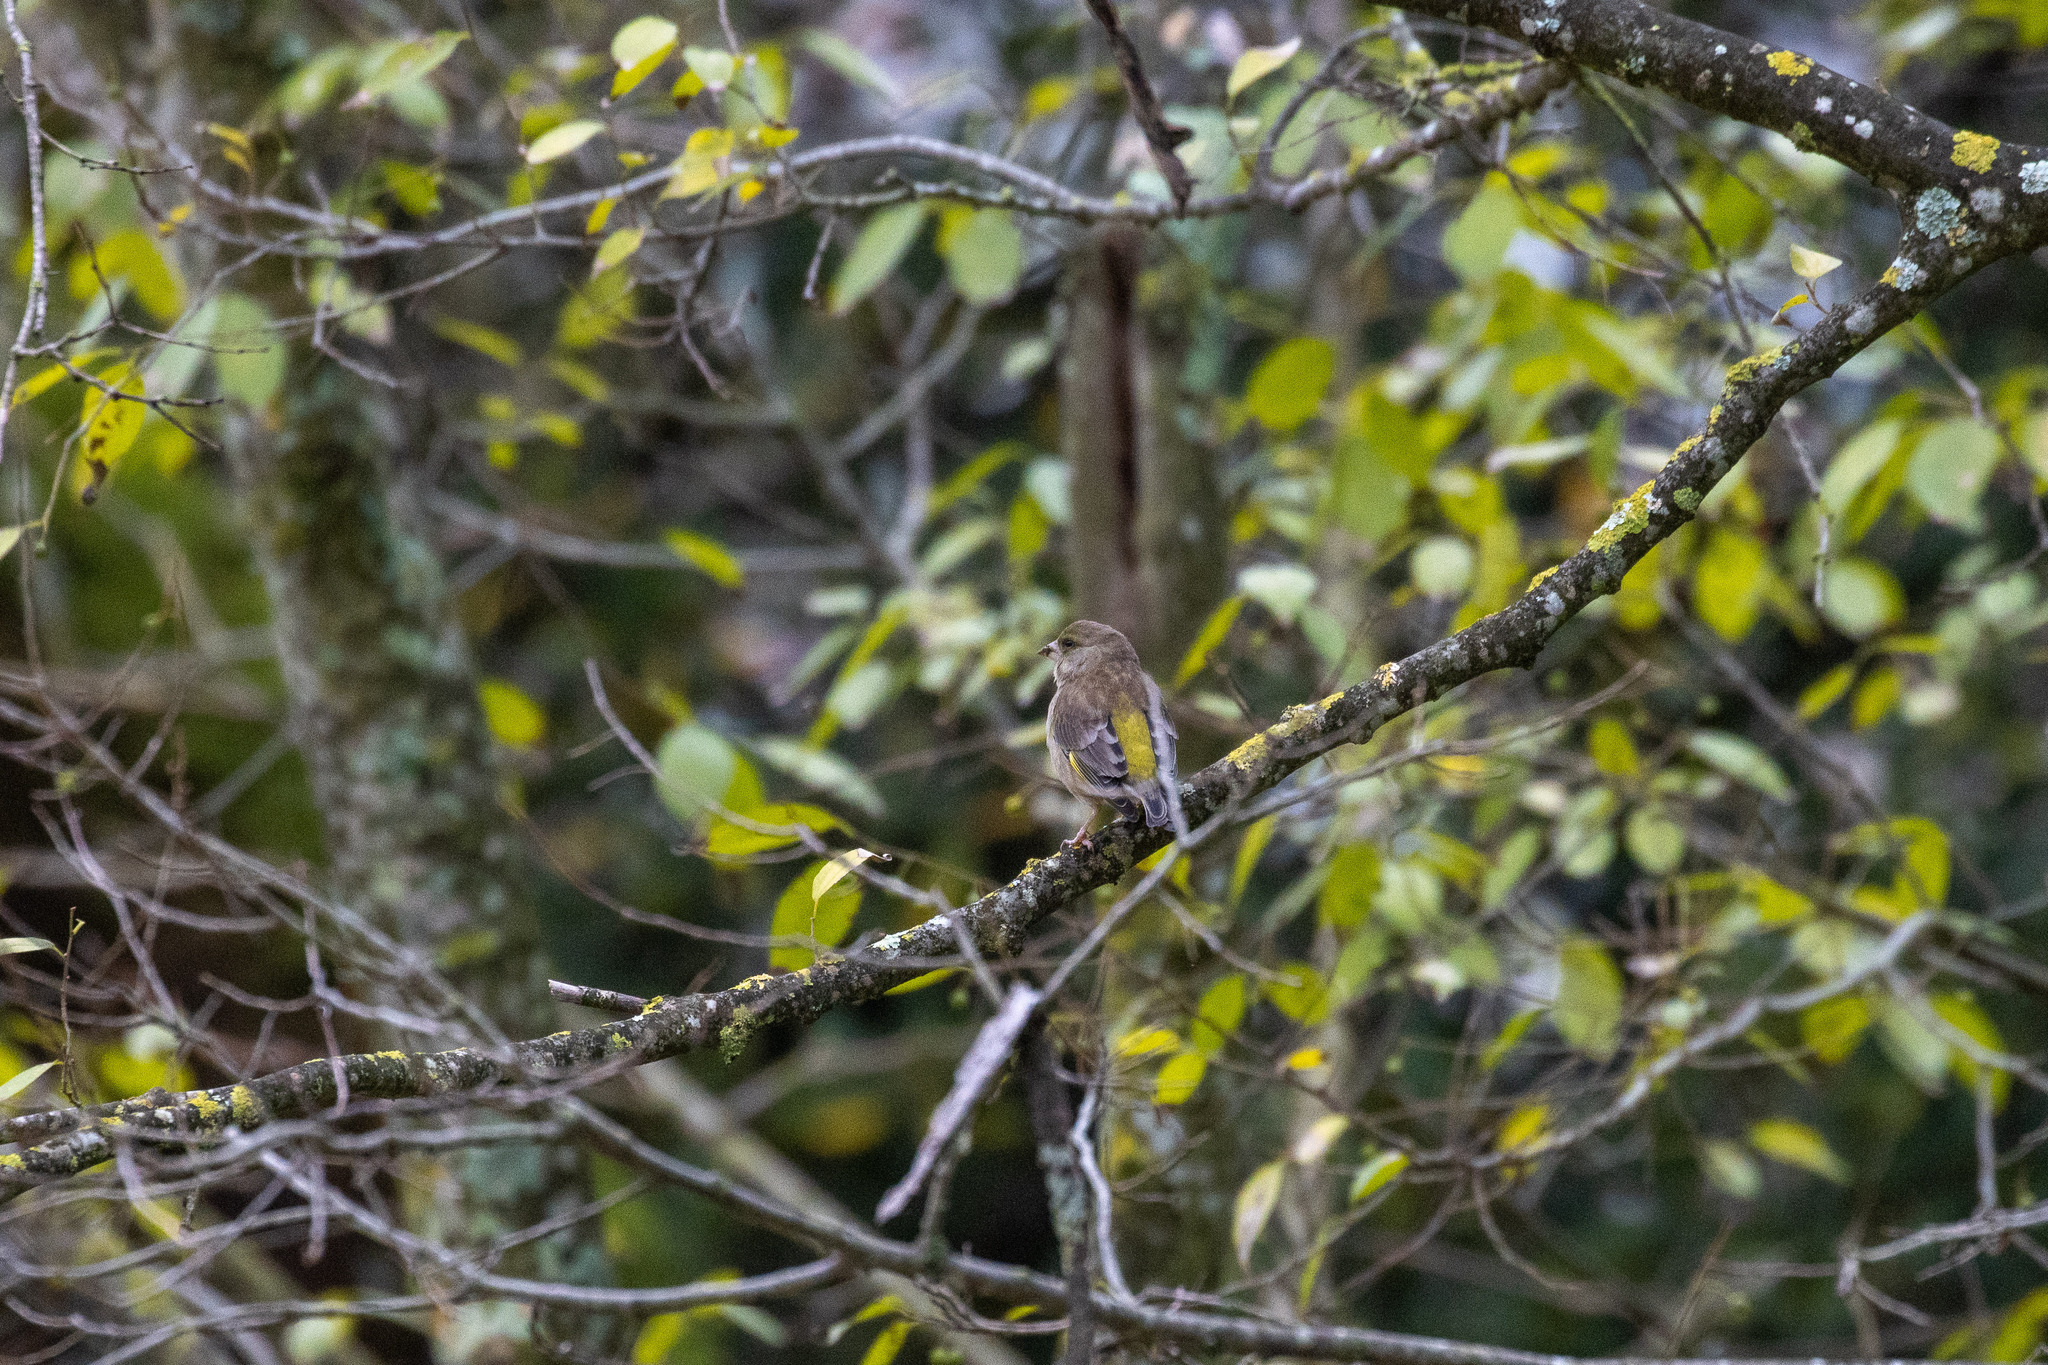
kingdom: Plantae
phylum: Tracheophyta
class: Liliopsida
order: Poales
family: Poaceae
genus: Chloris
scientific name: Chloris chloris
